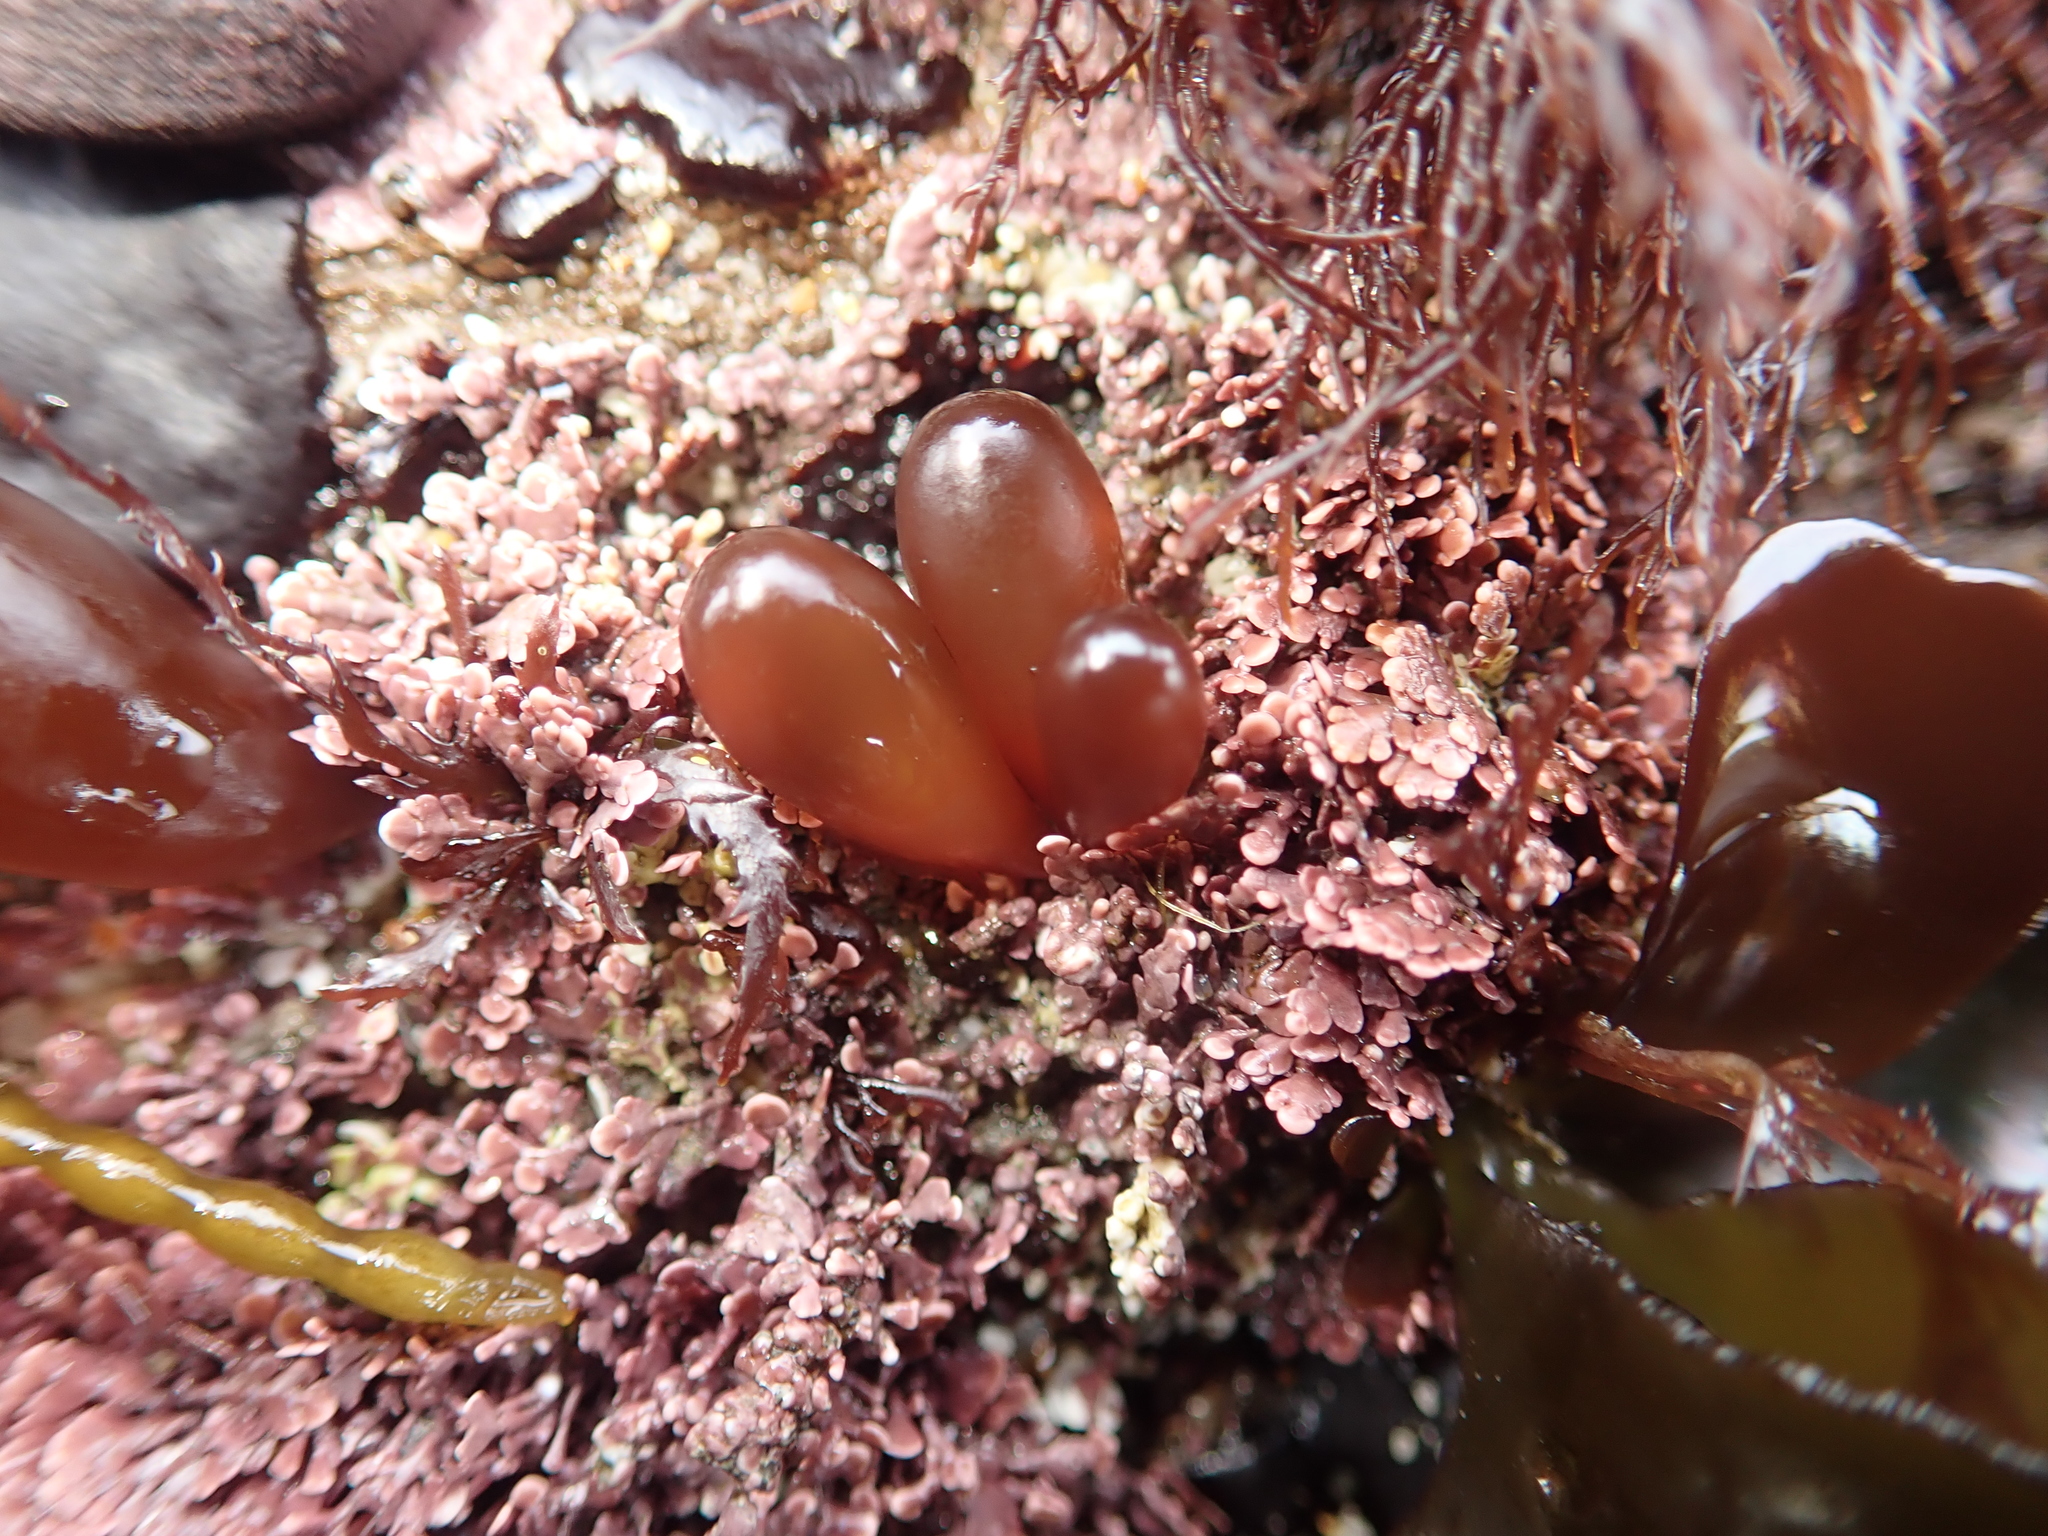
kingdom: Plantae
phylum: Rhodophyta
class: Florideophyceae
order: Palmariales
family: Palmariaceae
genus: Halosaccion
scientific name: Halosaccion glandiforme
